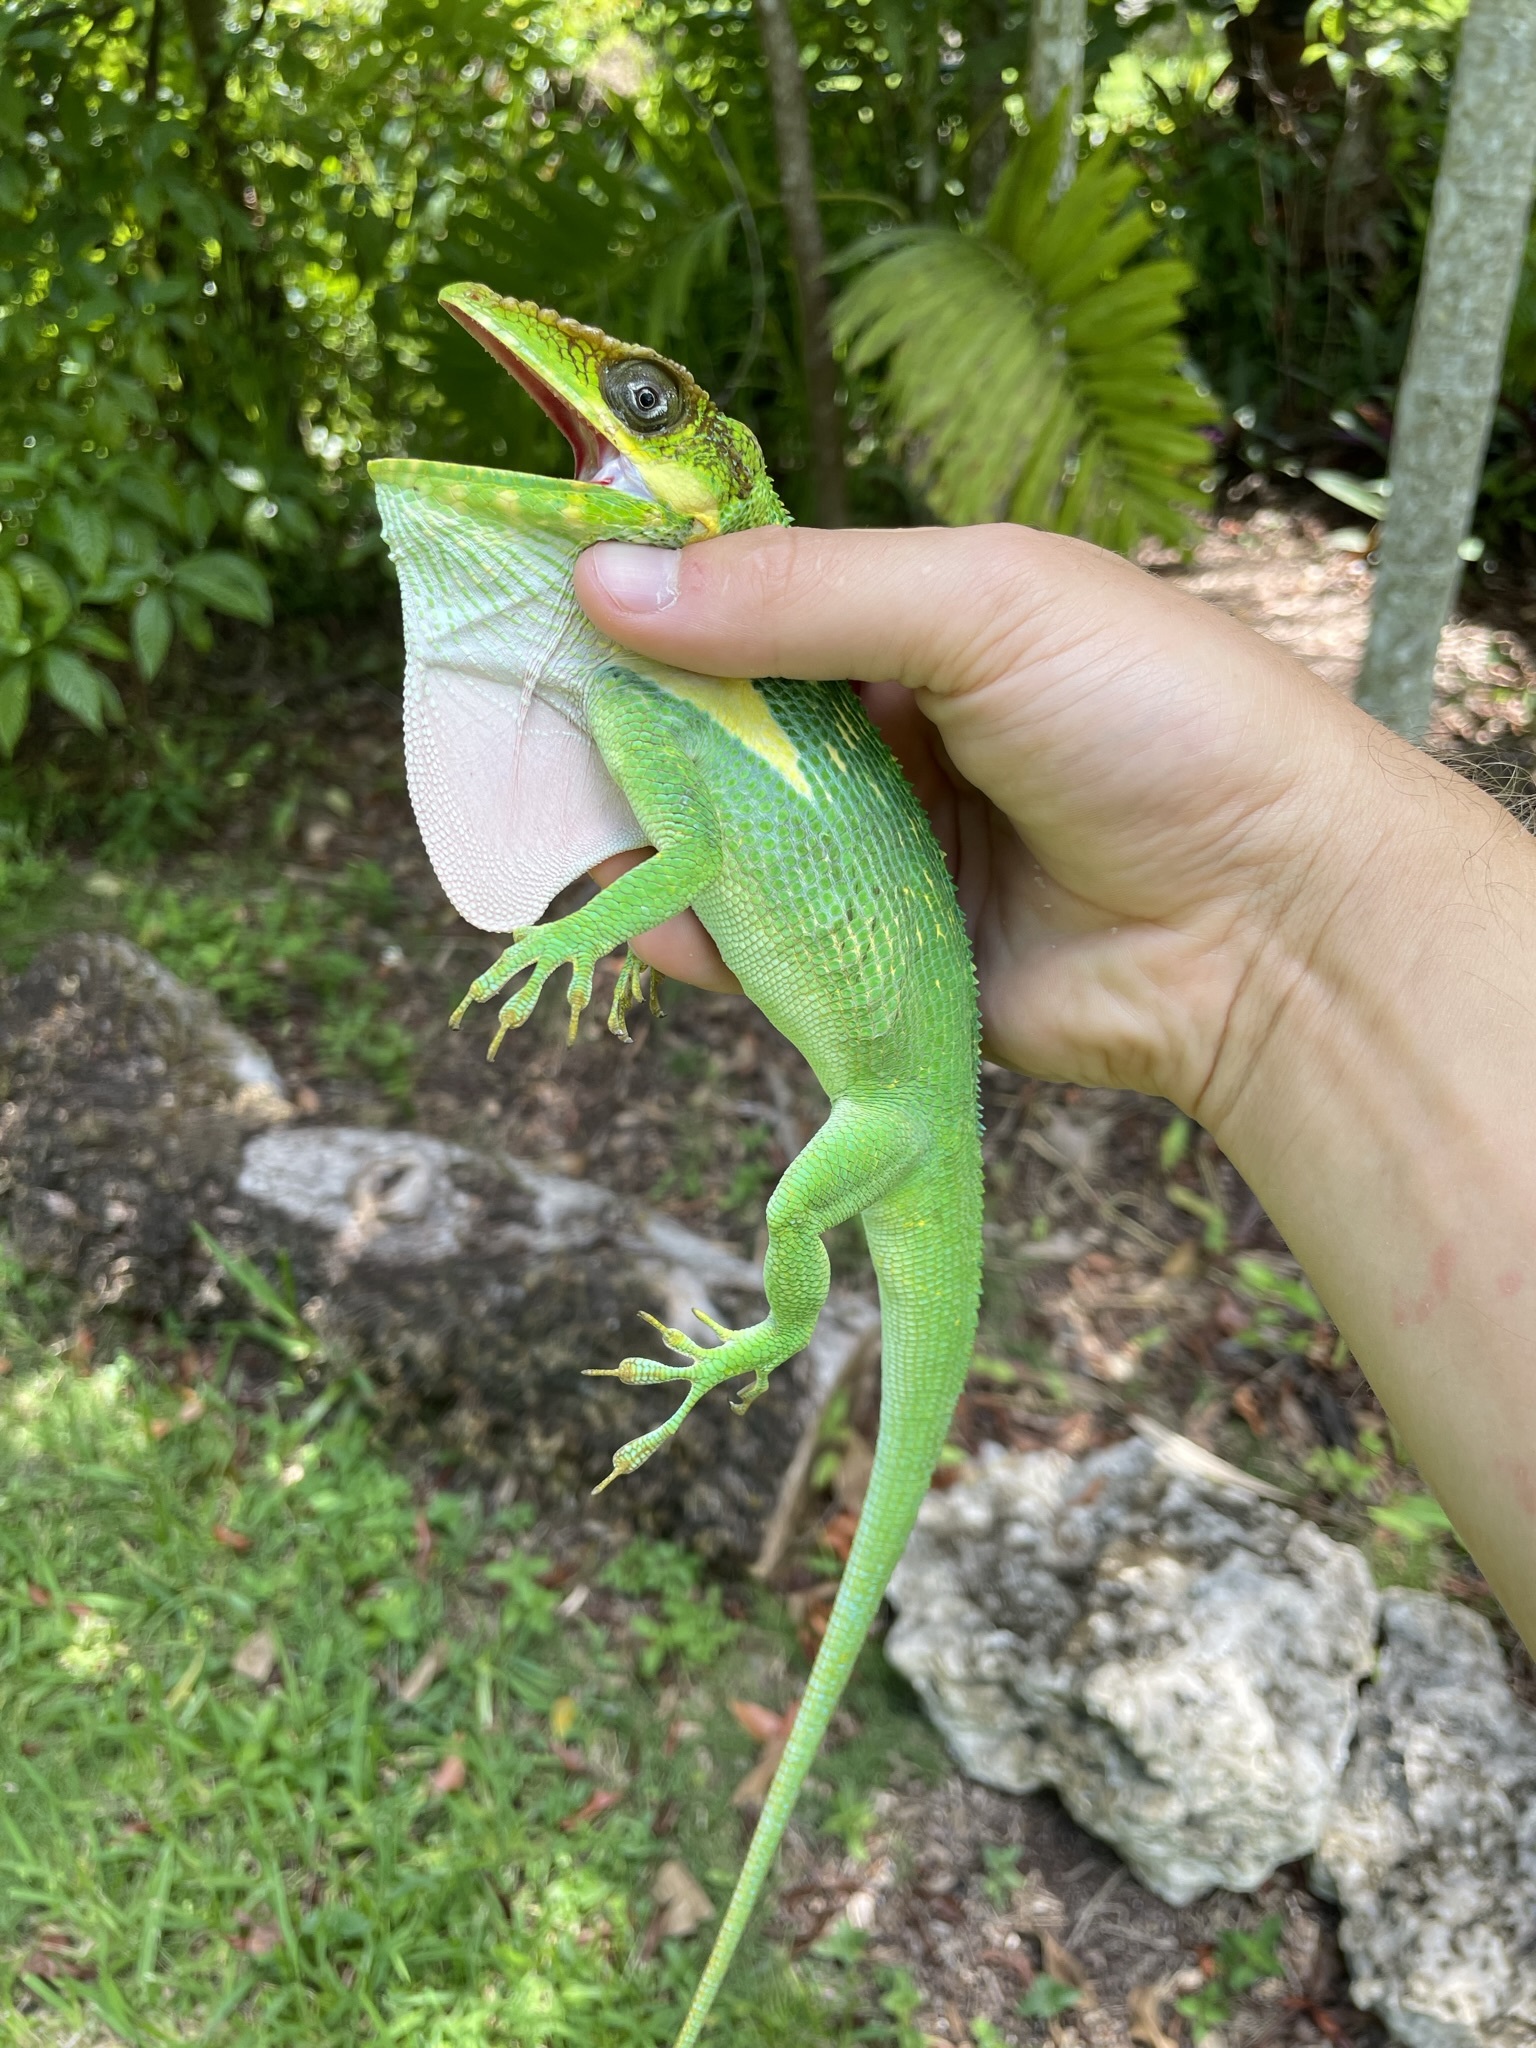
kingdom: Animalia
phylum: Chordata
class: Squamata
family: Dactyloidae
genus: Anolis
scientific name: Anolis equestris
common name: Knight anole
